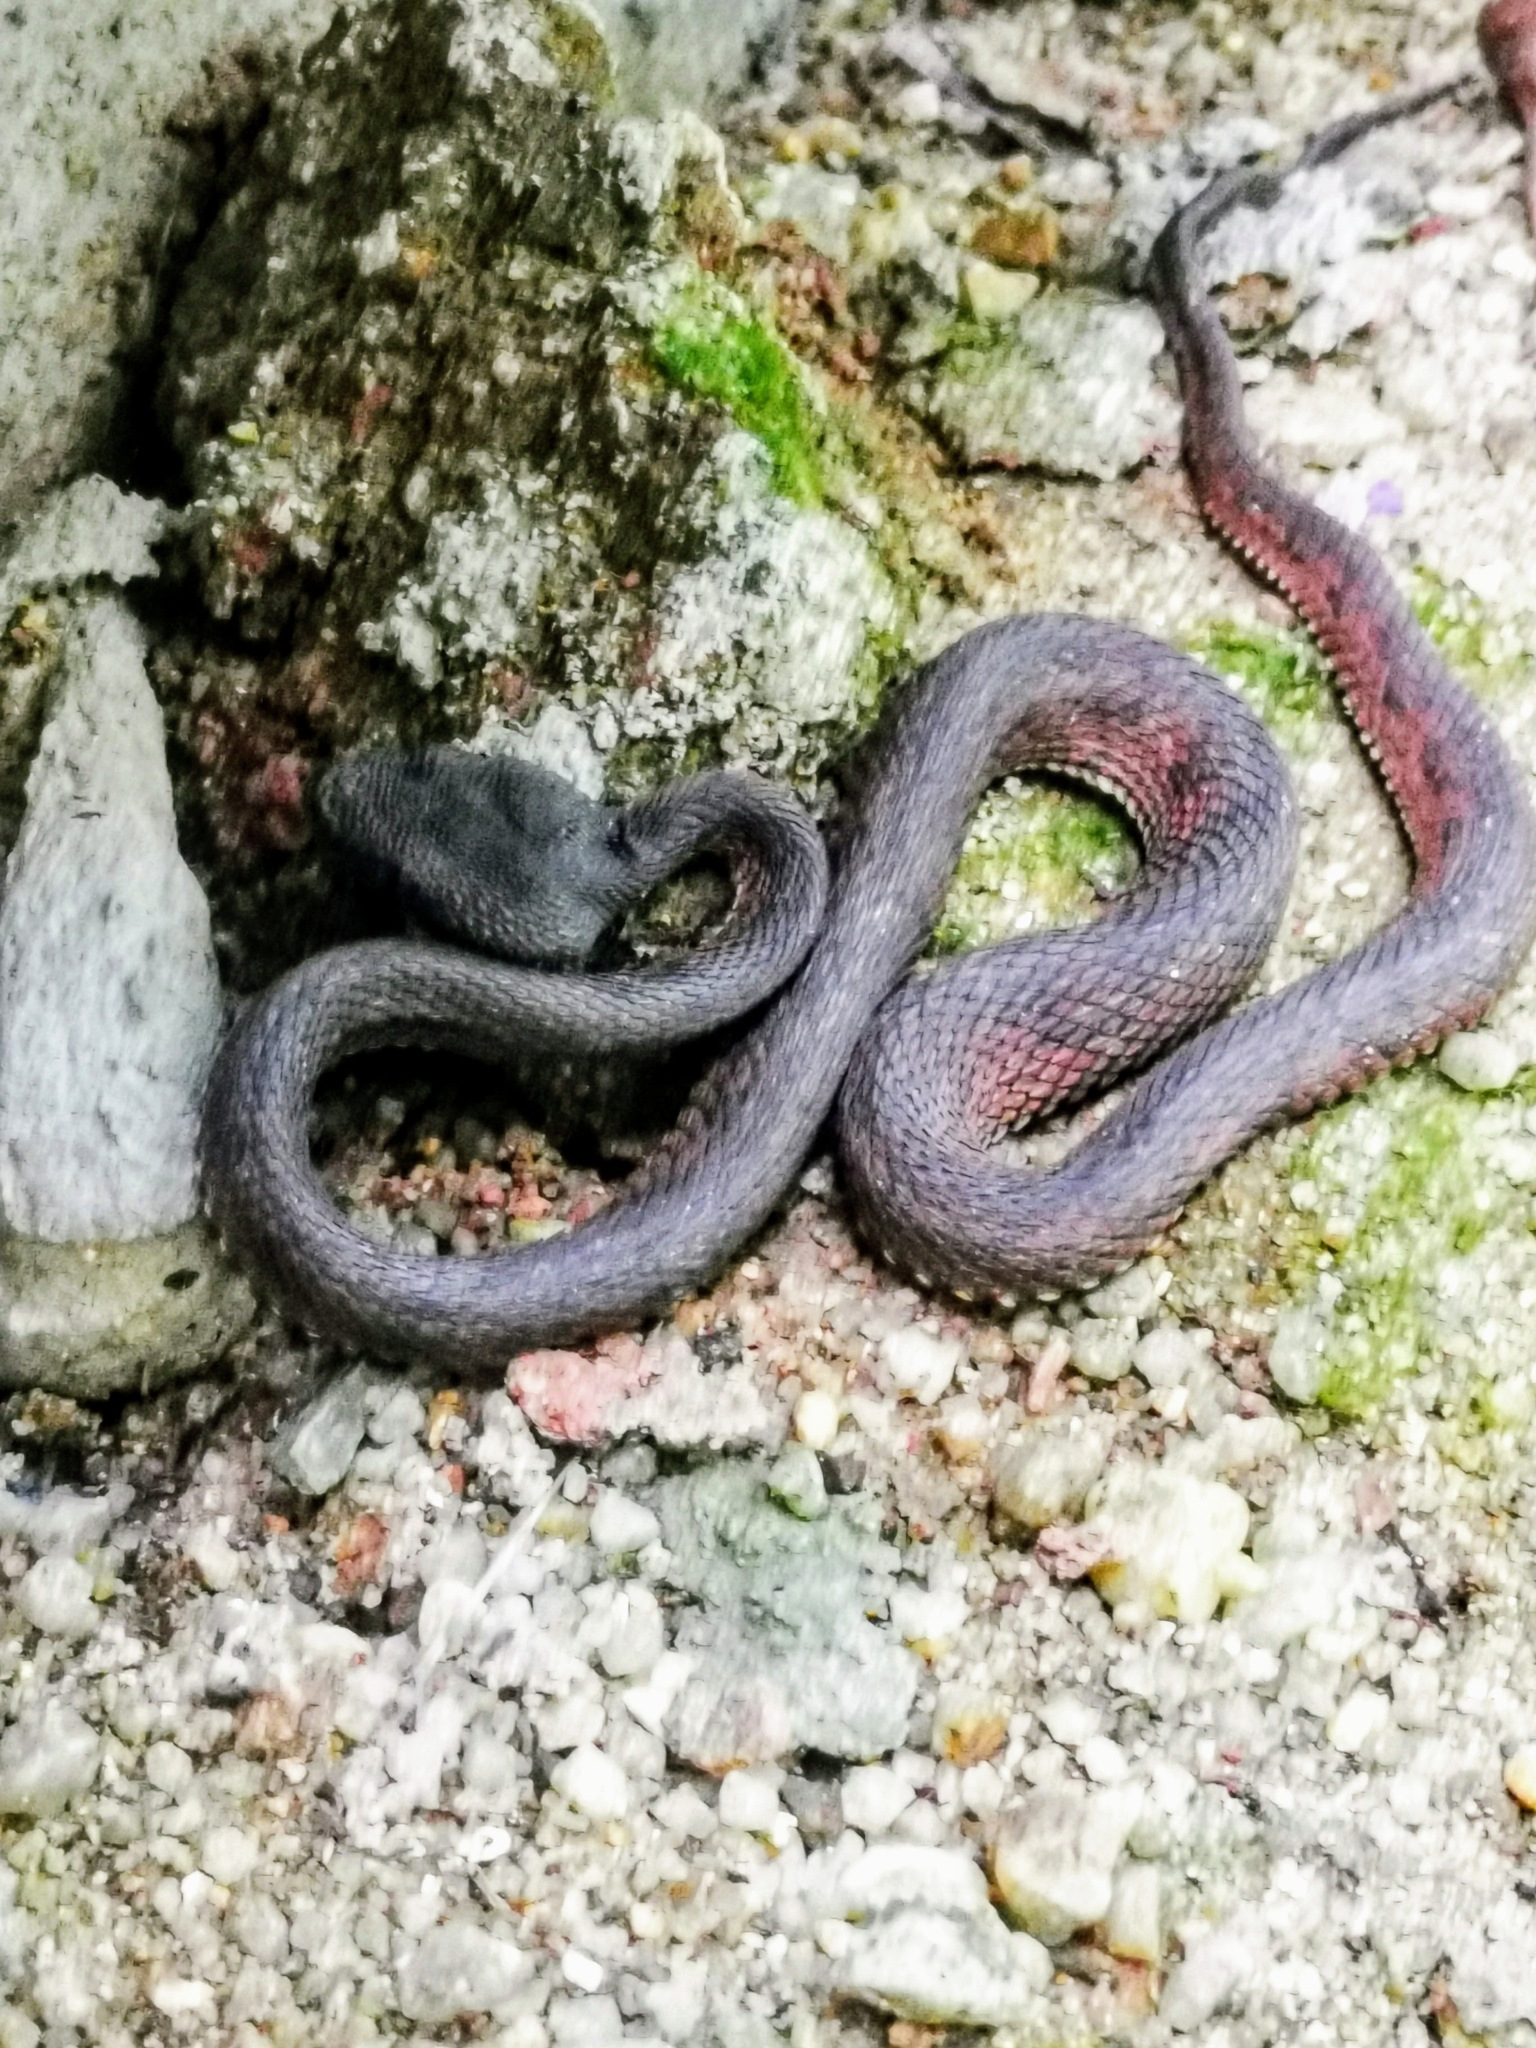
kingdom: Animalia
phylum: Chordata
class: Squamata
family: Viperidae
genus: Trimeresurus
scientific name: Trimeresurus purpureomaculatus
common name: Shore pit viper
